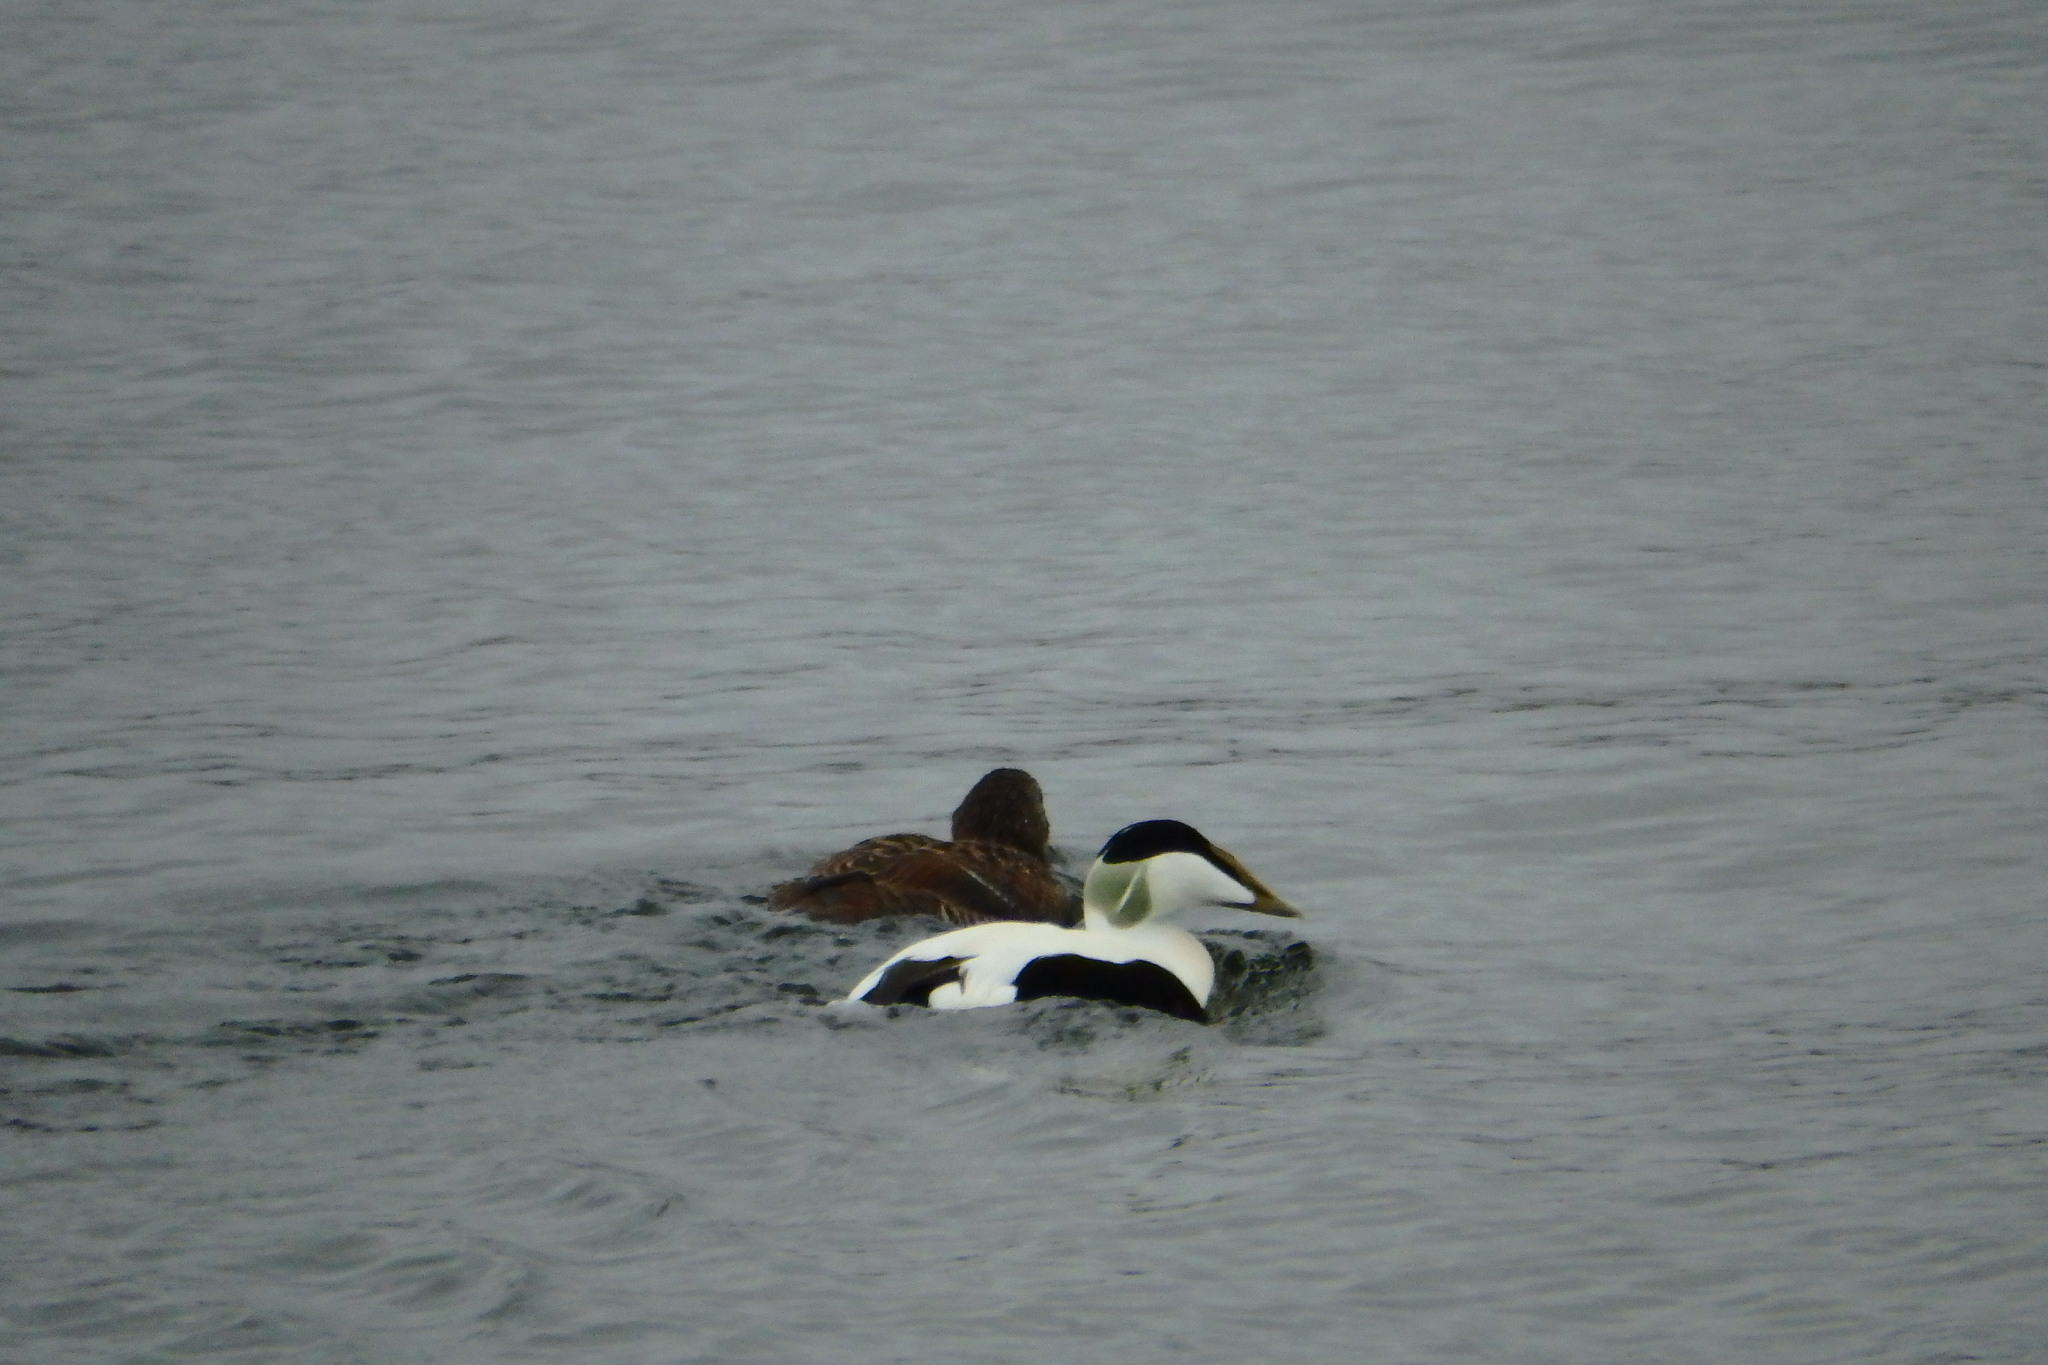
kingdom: Animalia
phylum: Chordata
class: Aves
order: Anseriformes
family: Anatidae
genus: Somateria
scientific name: Somateria mollissima
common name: Common eider
